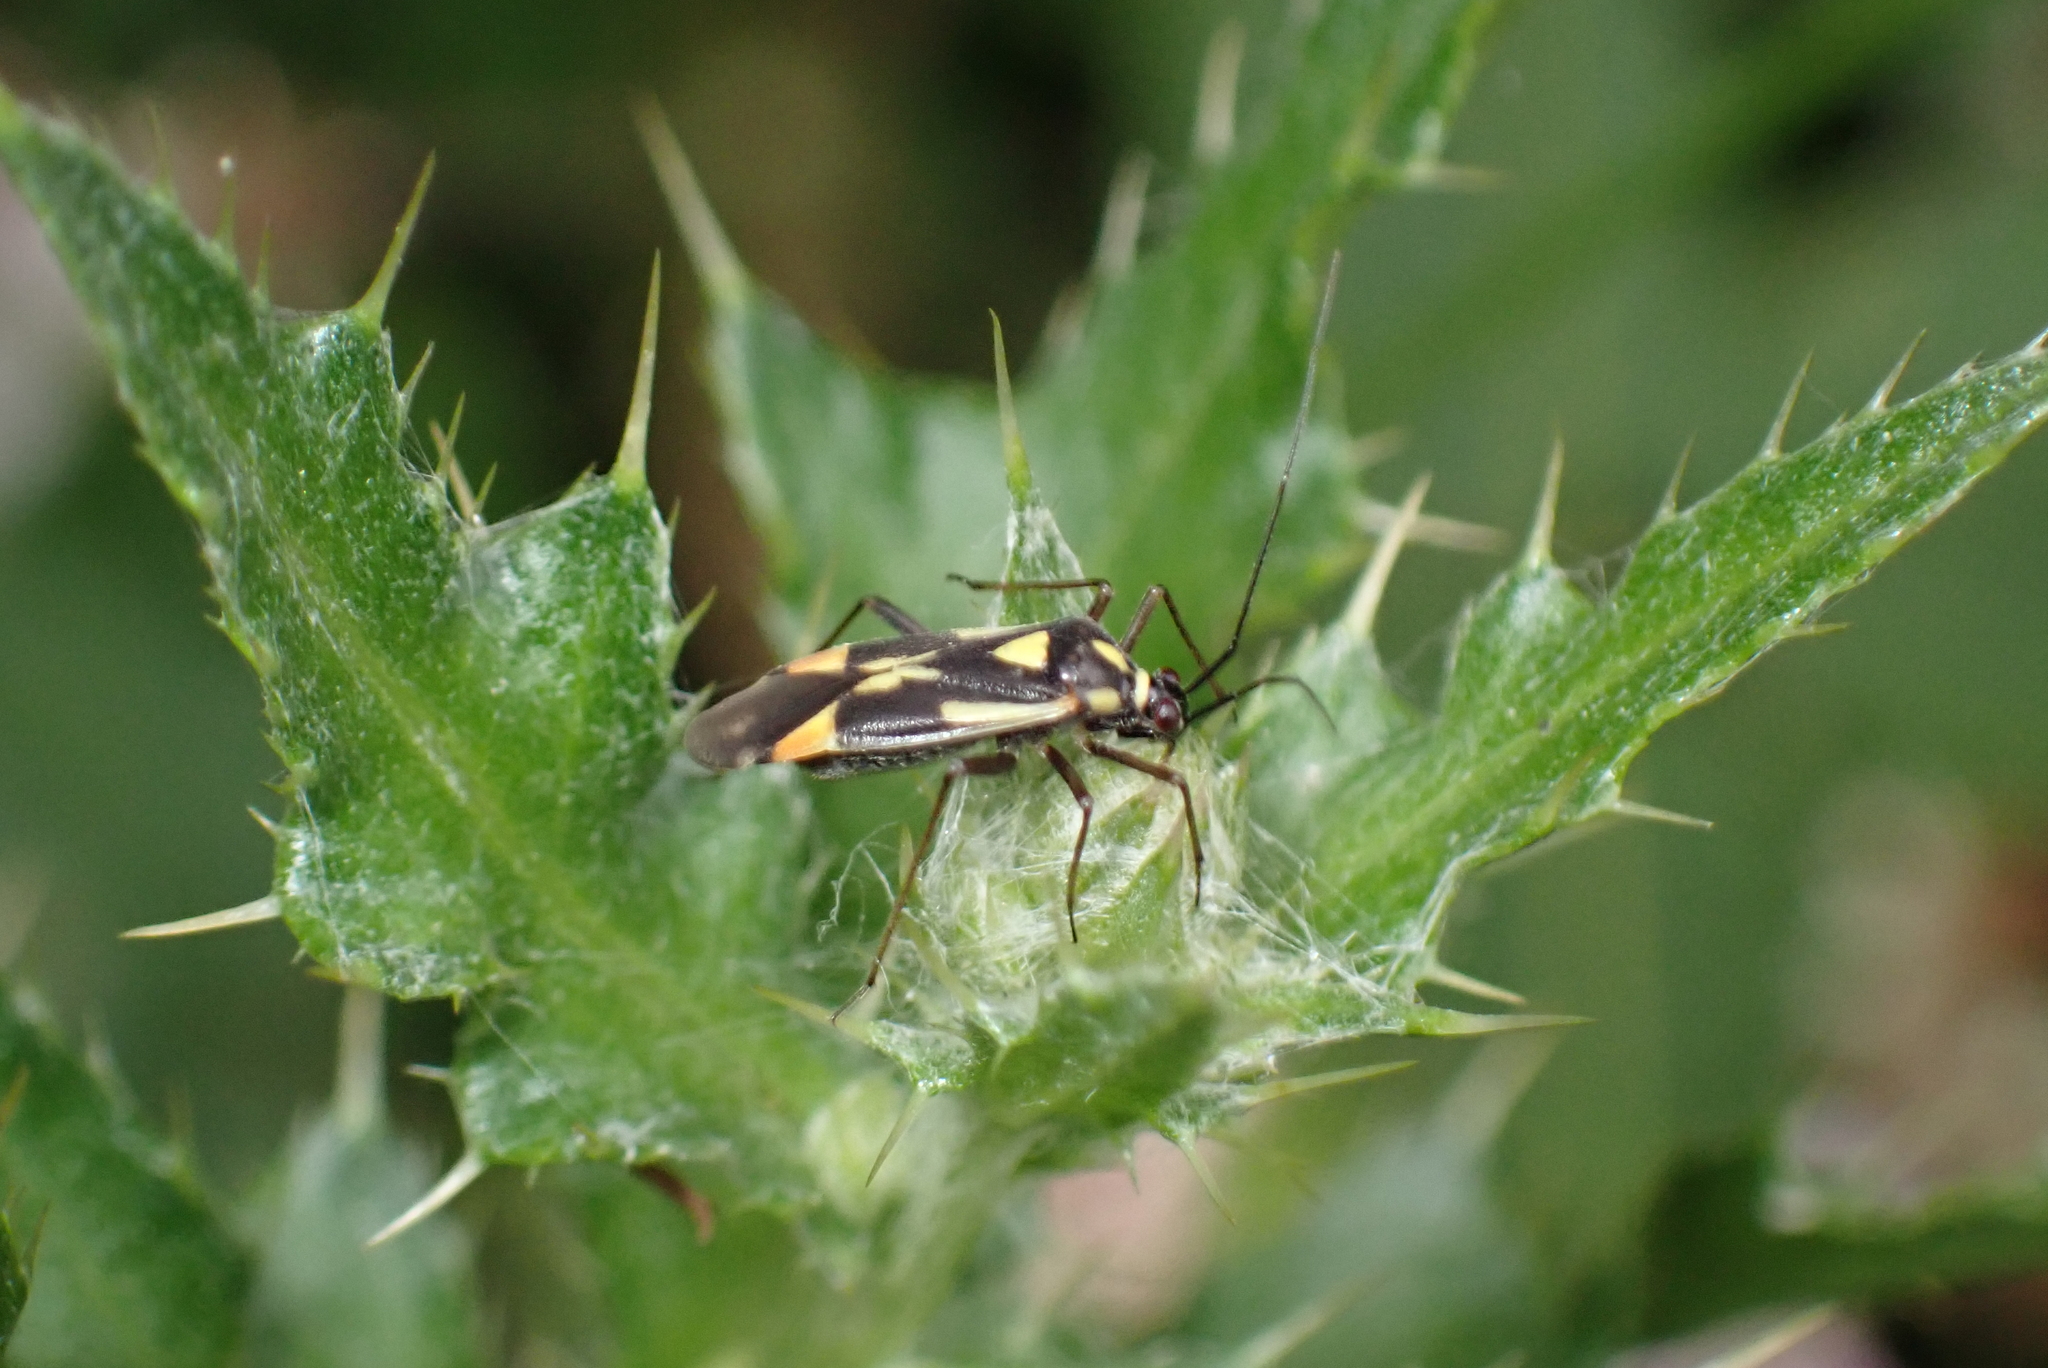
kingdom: Animalia
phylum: Arthropoda
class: Insecta
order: Hemiptera
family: Miridae
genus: Grypocoris
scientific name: Grypocoris stysi
